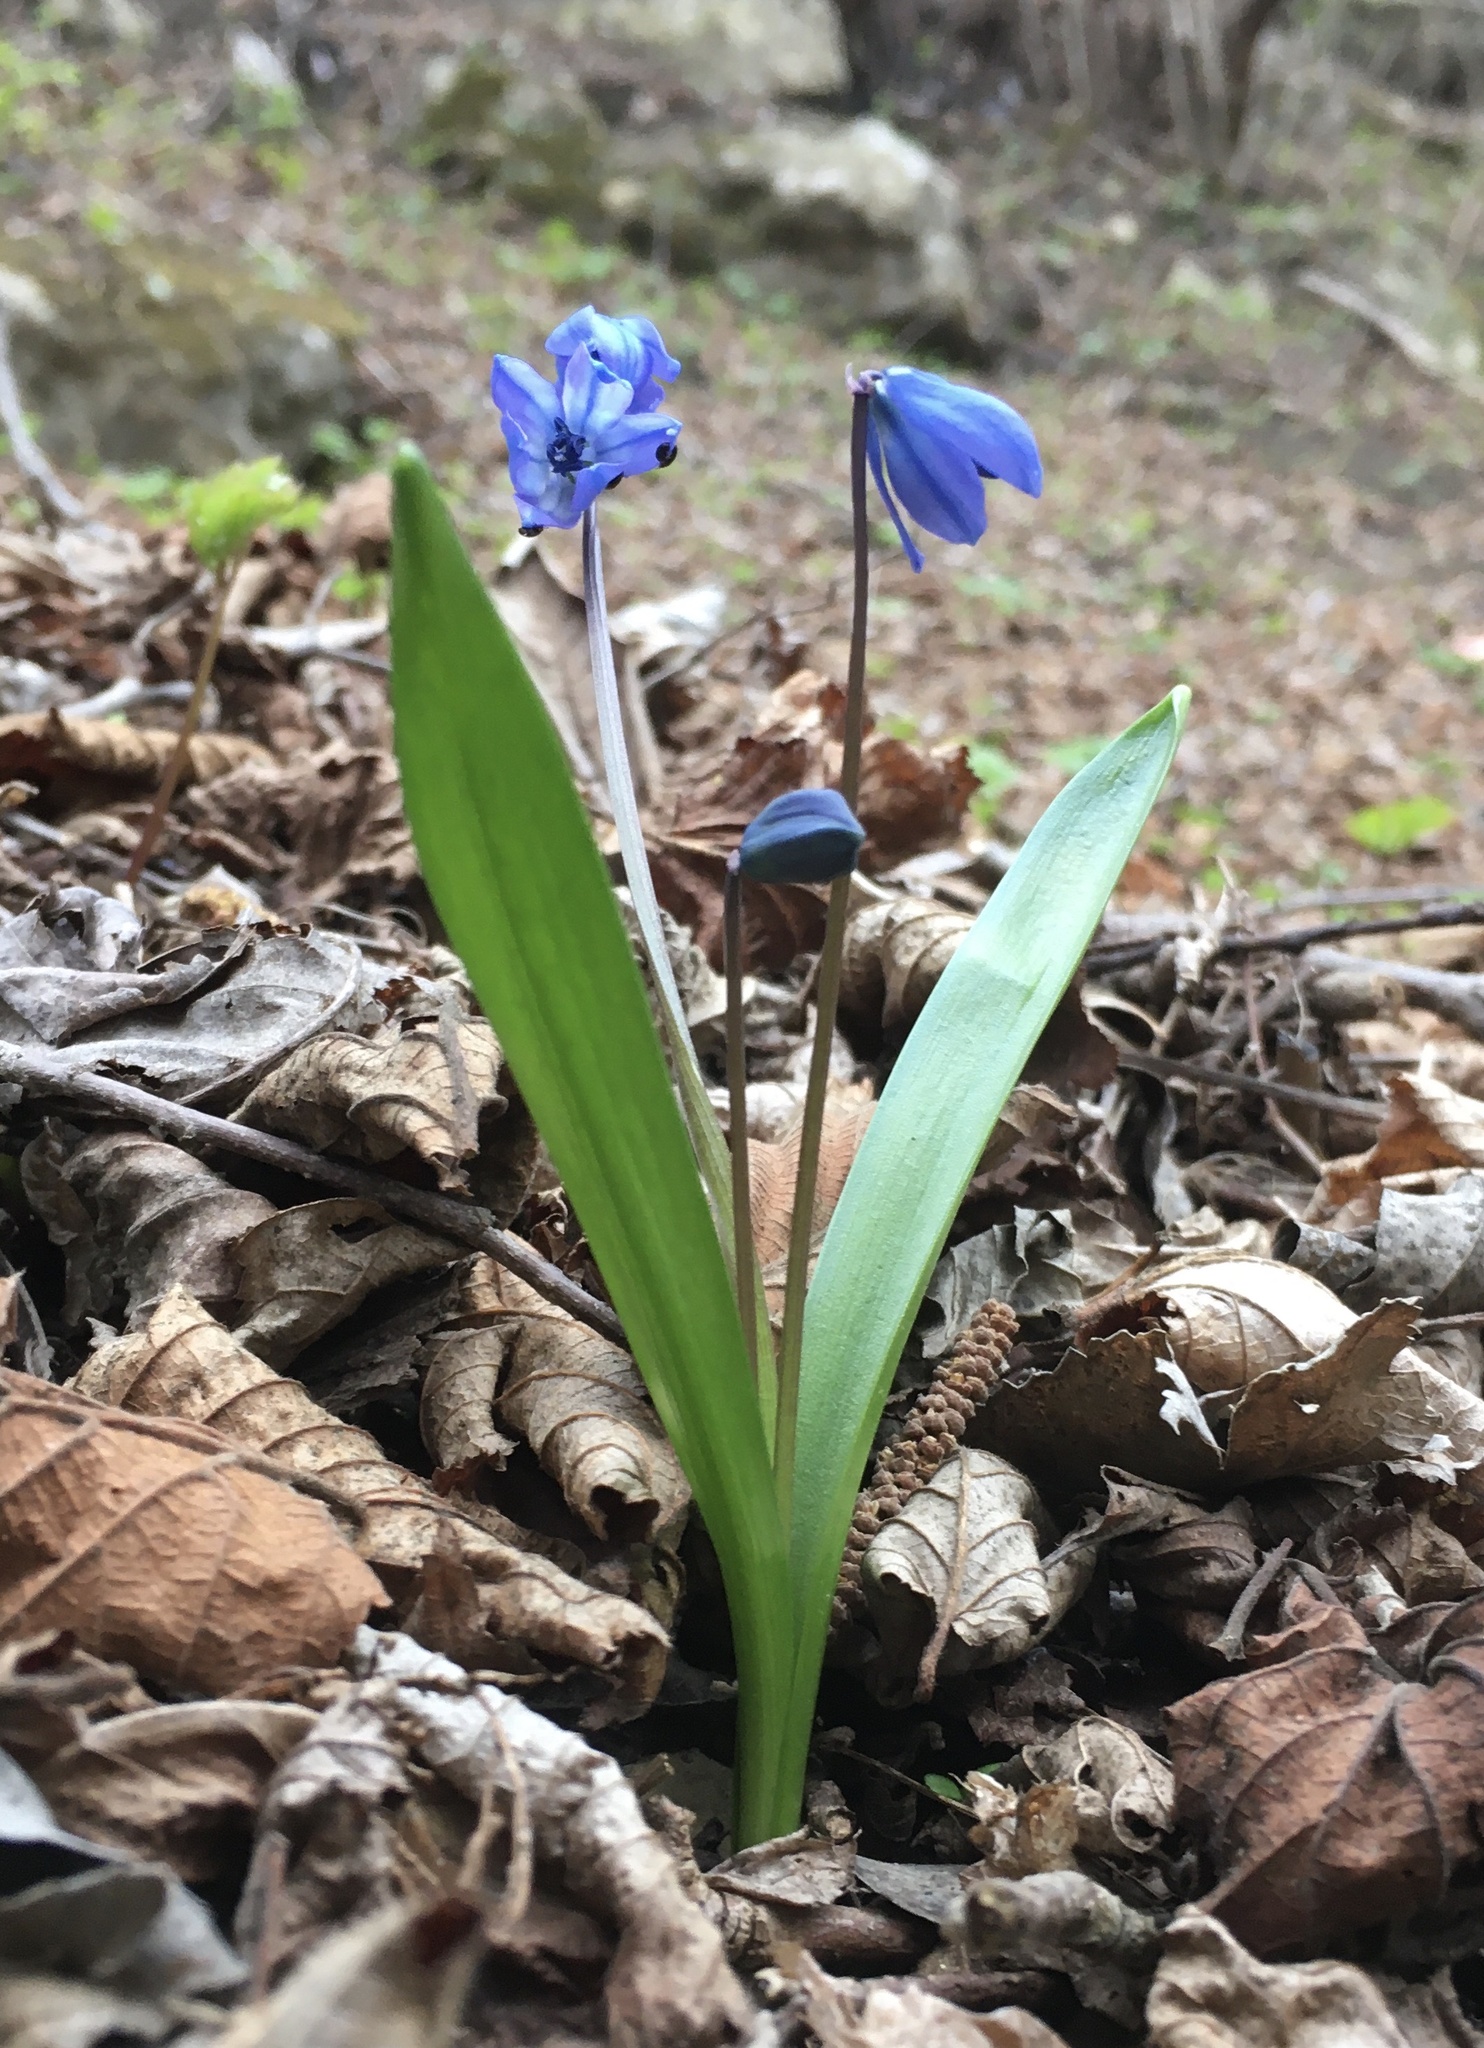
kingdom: Plantae
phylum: Tracheophyta
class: Liliopsida
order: Asparagales
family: Asparagaceae
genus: Scilla
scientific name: Scilla siberica
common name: Siberian squill
